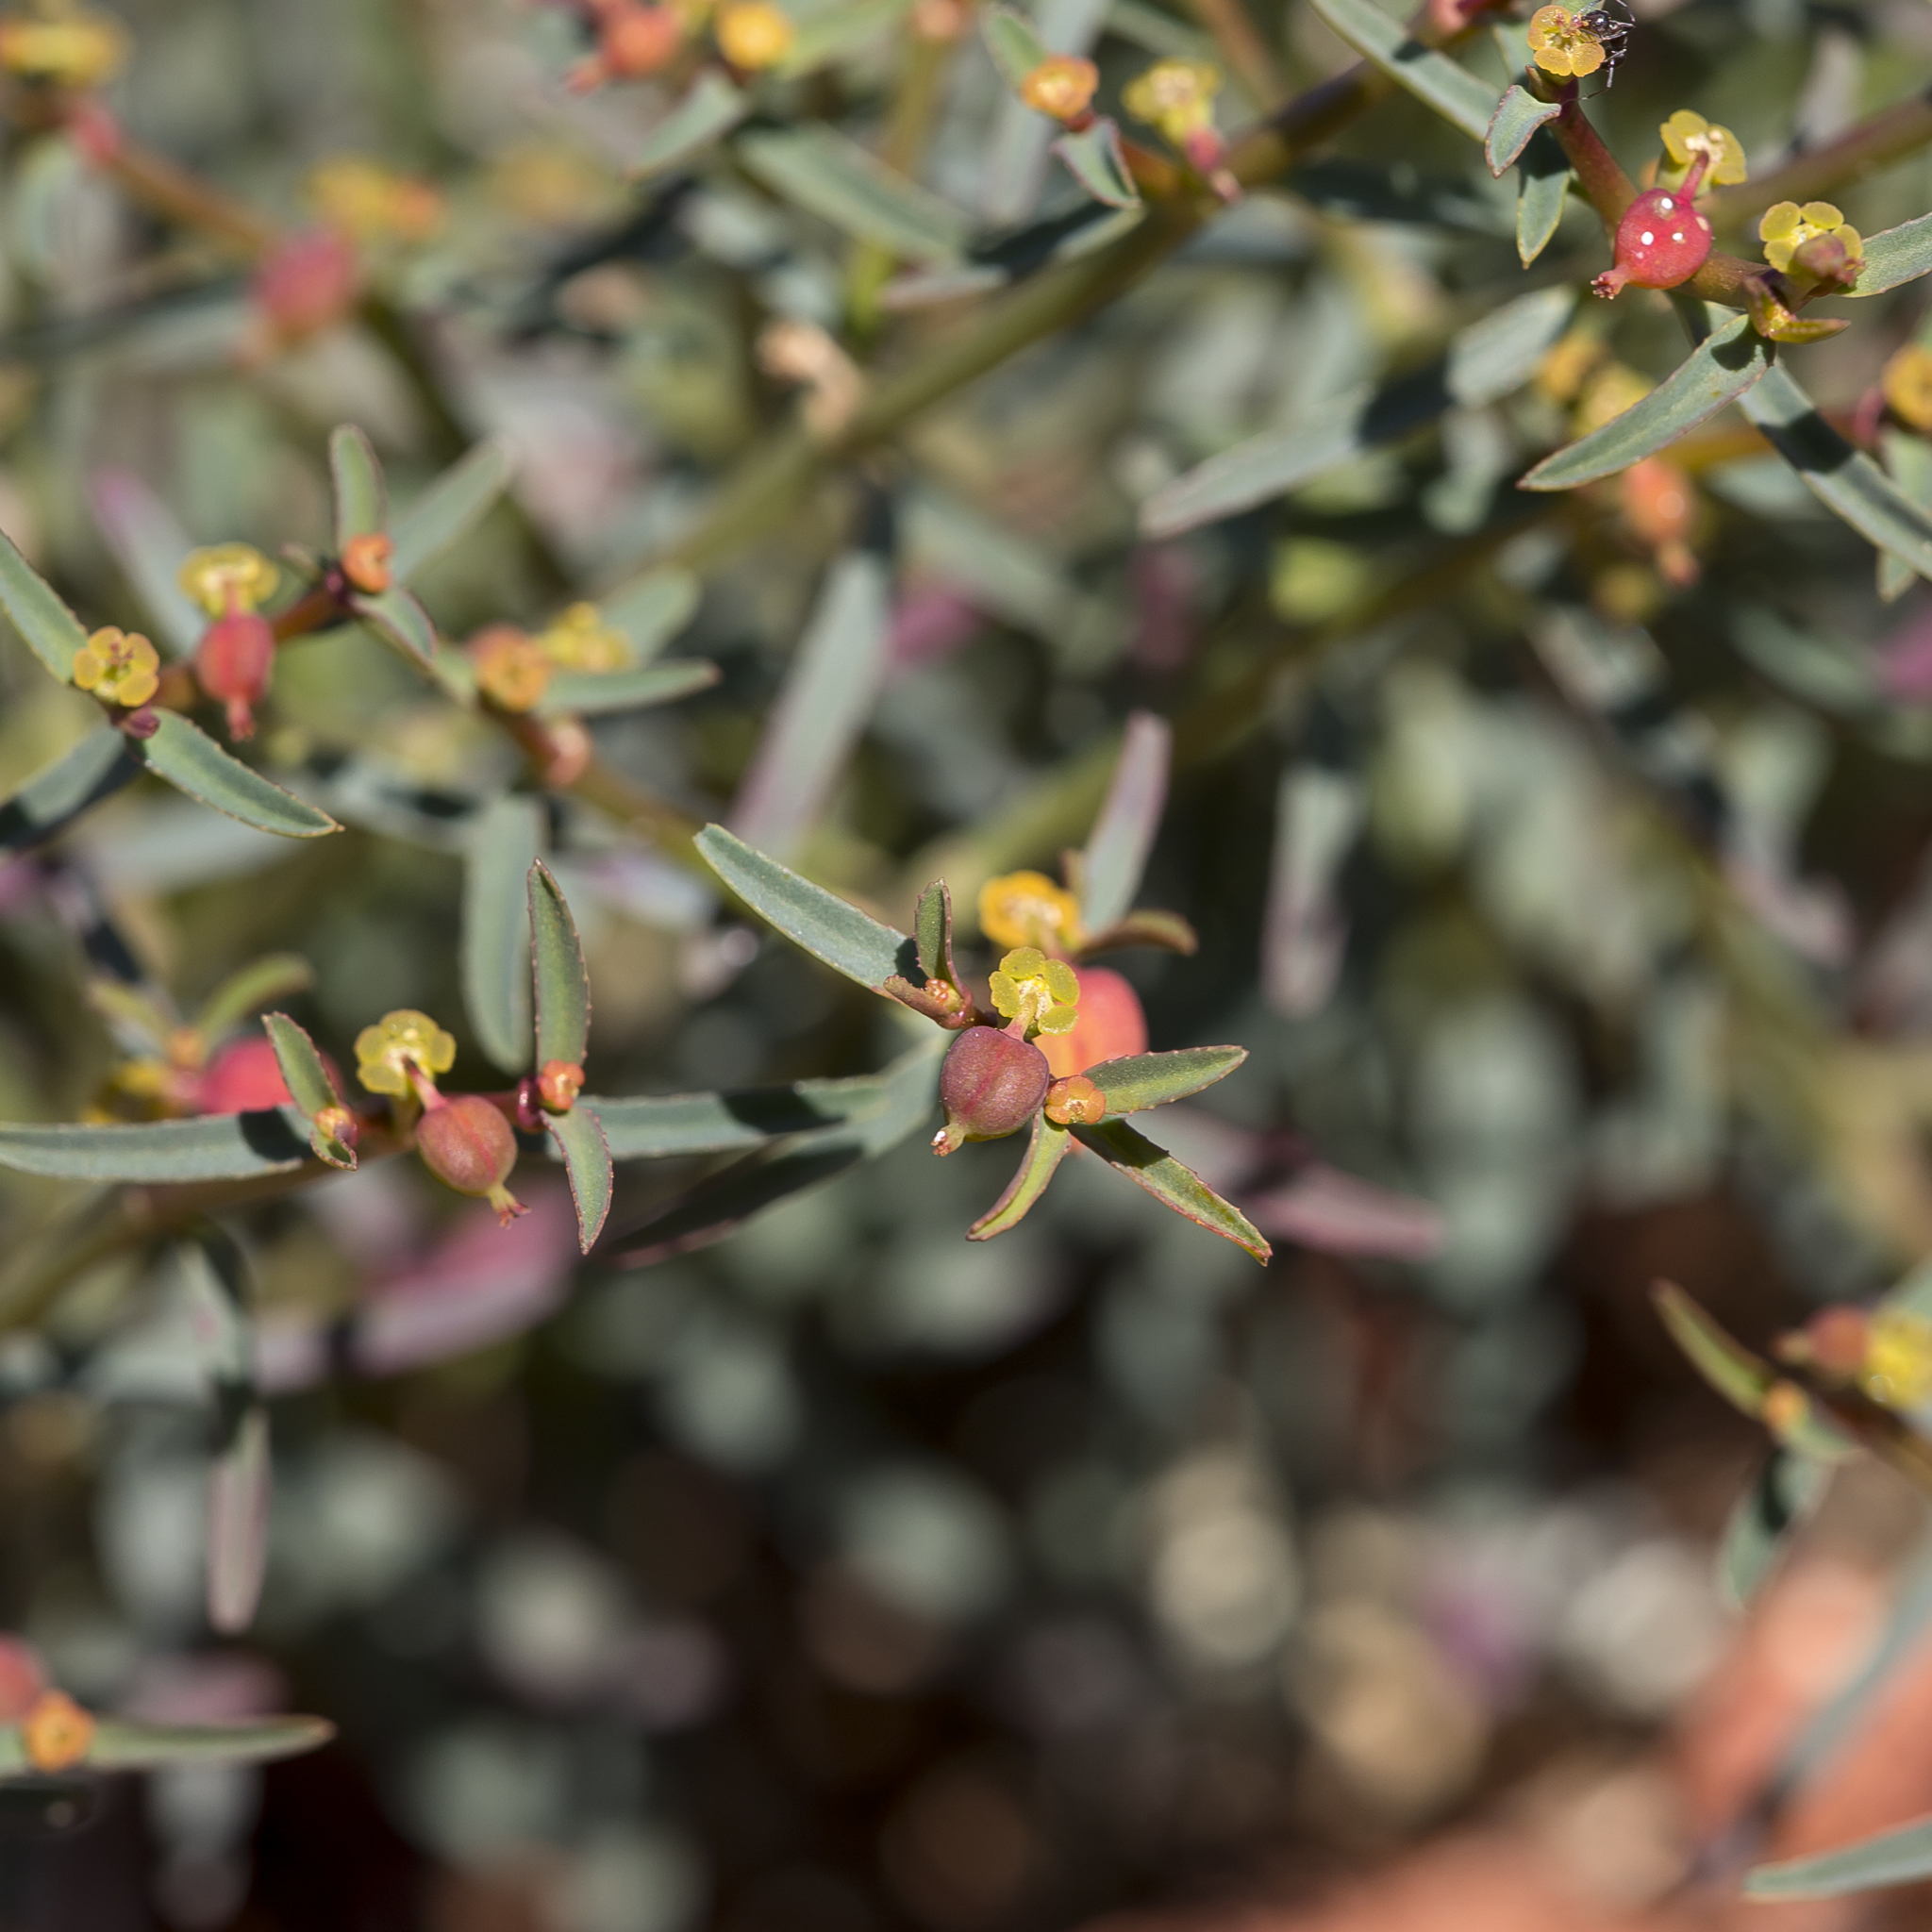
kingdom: Plantae
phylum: Tracheophyta
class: Magnoliopsida
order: Malpighiales
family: Euphorbiaceae
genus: Euphorbia
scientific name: Euphorbia tannensis
